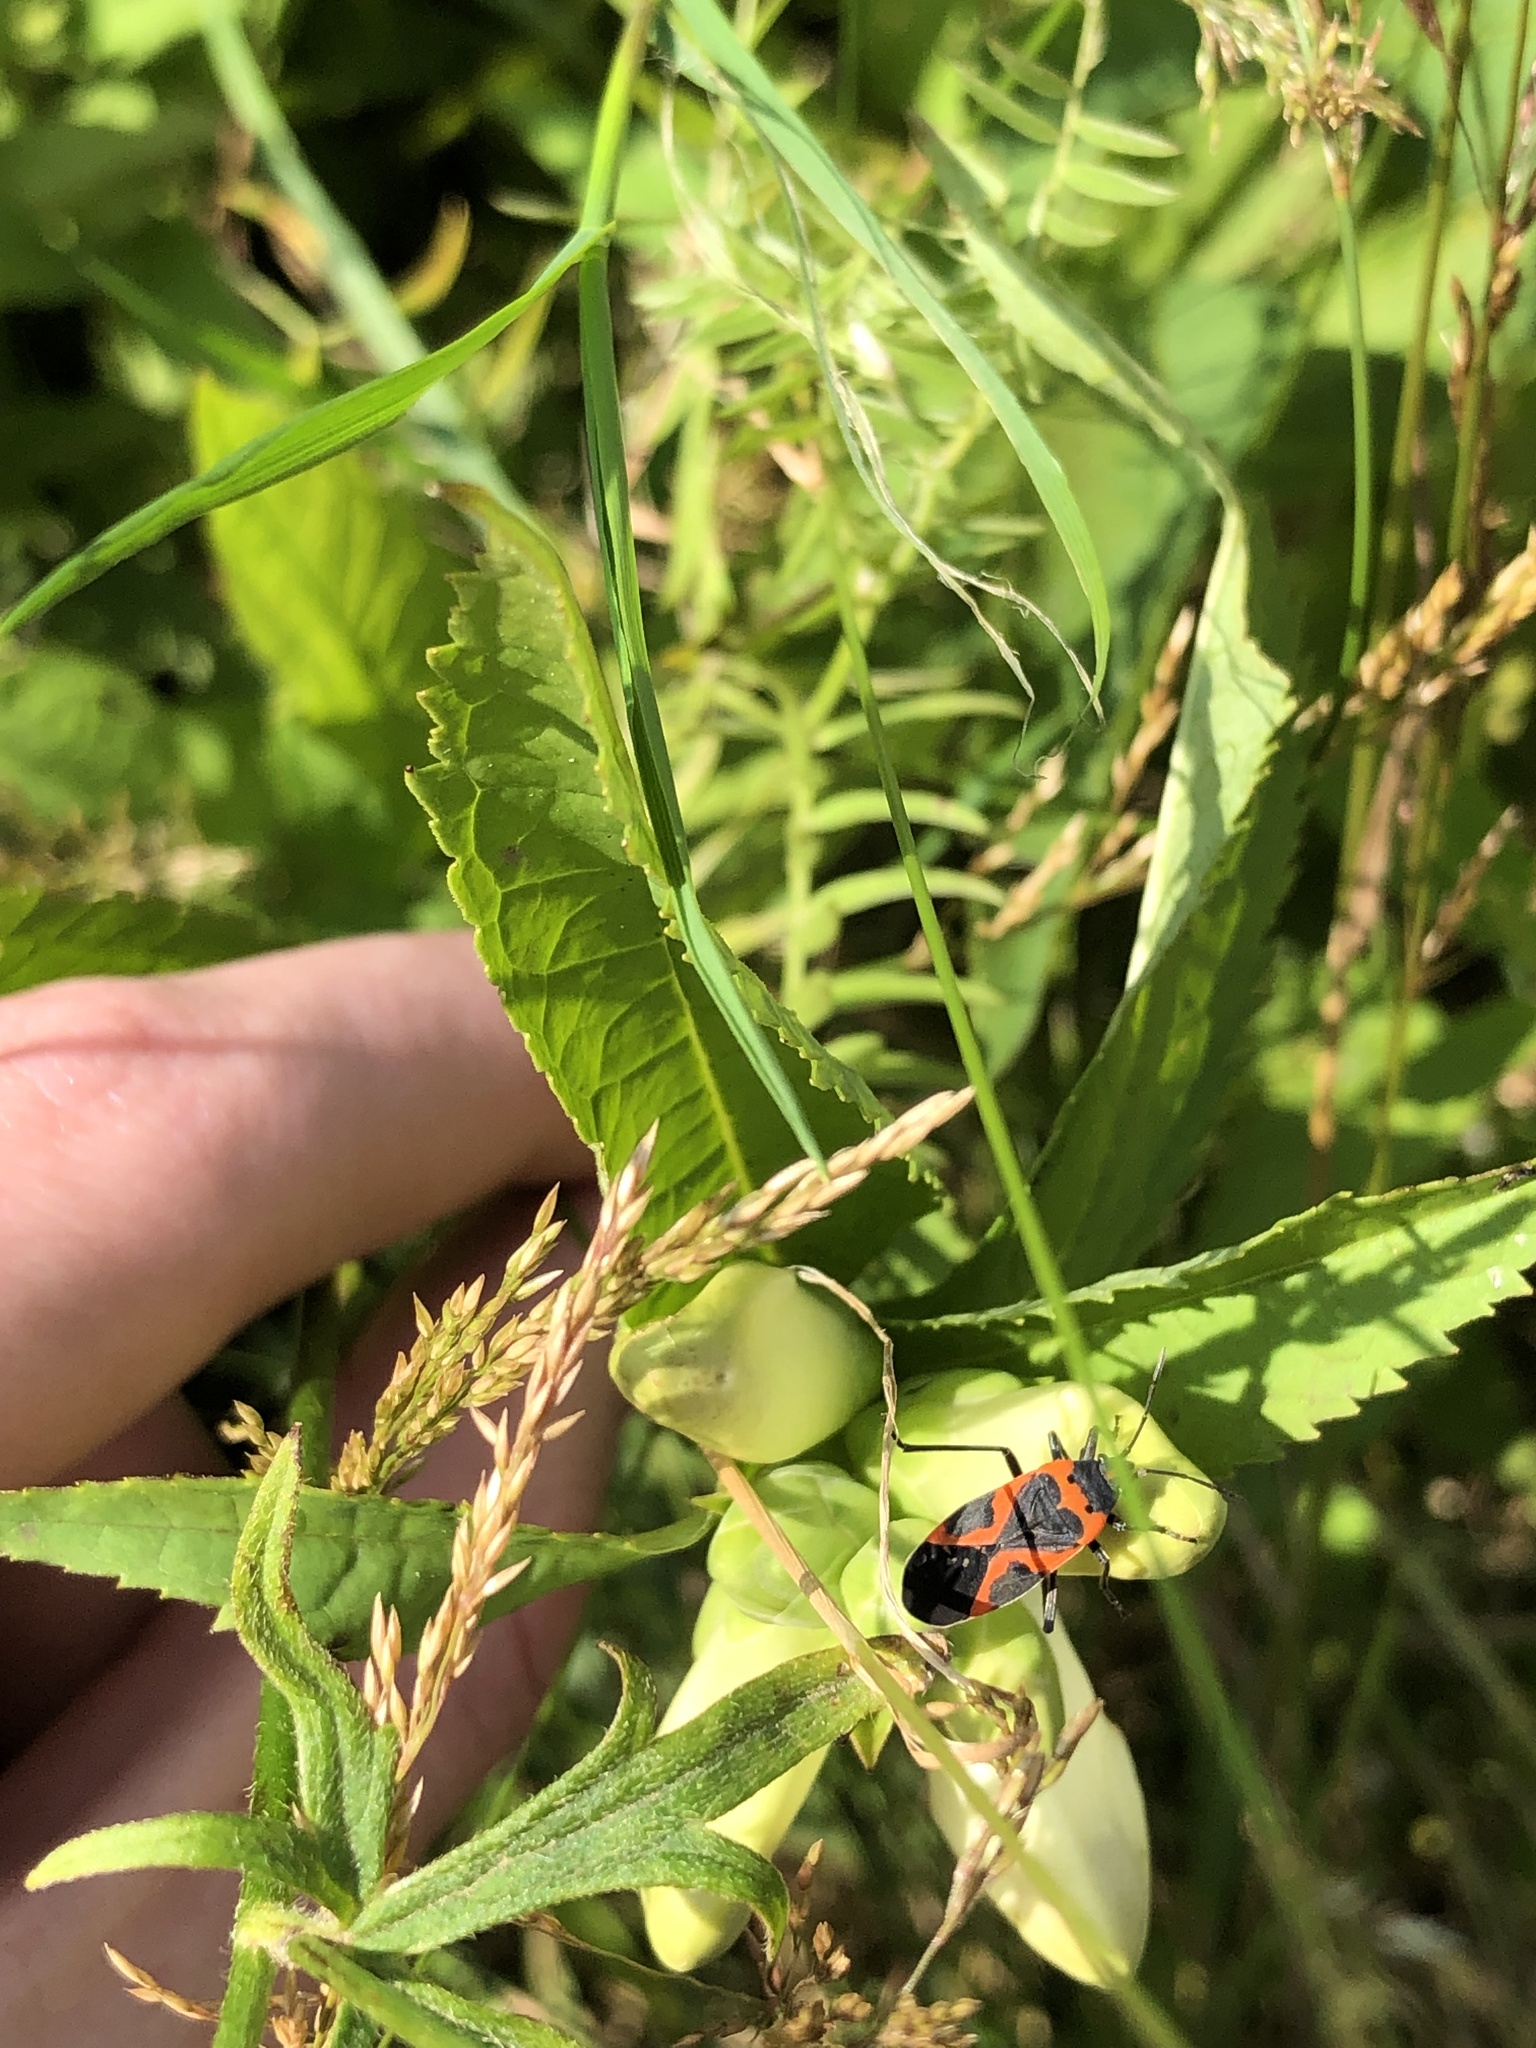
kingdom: Animalia
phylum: Arthropoda
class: Insecta
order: Hemiptera
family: Lygaeidae
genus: Lygaeus
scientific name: Lygaeus kalmii
